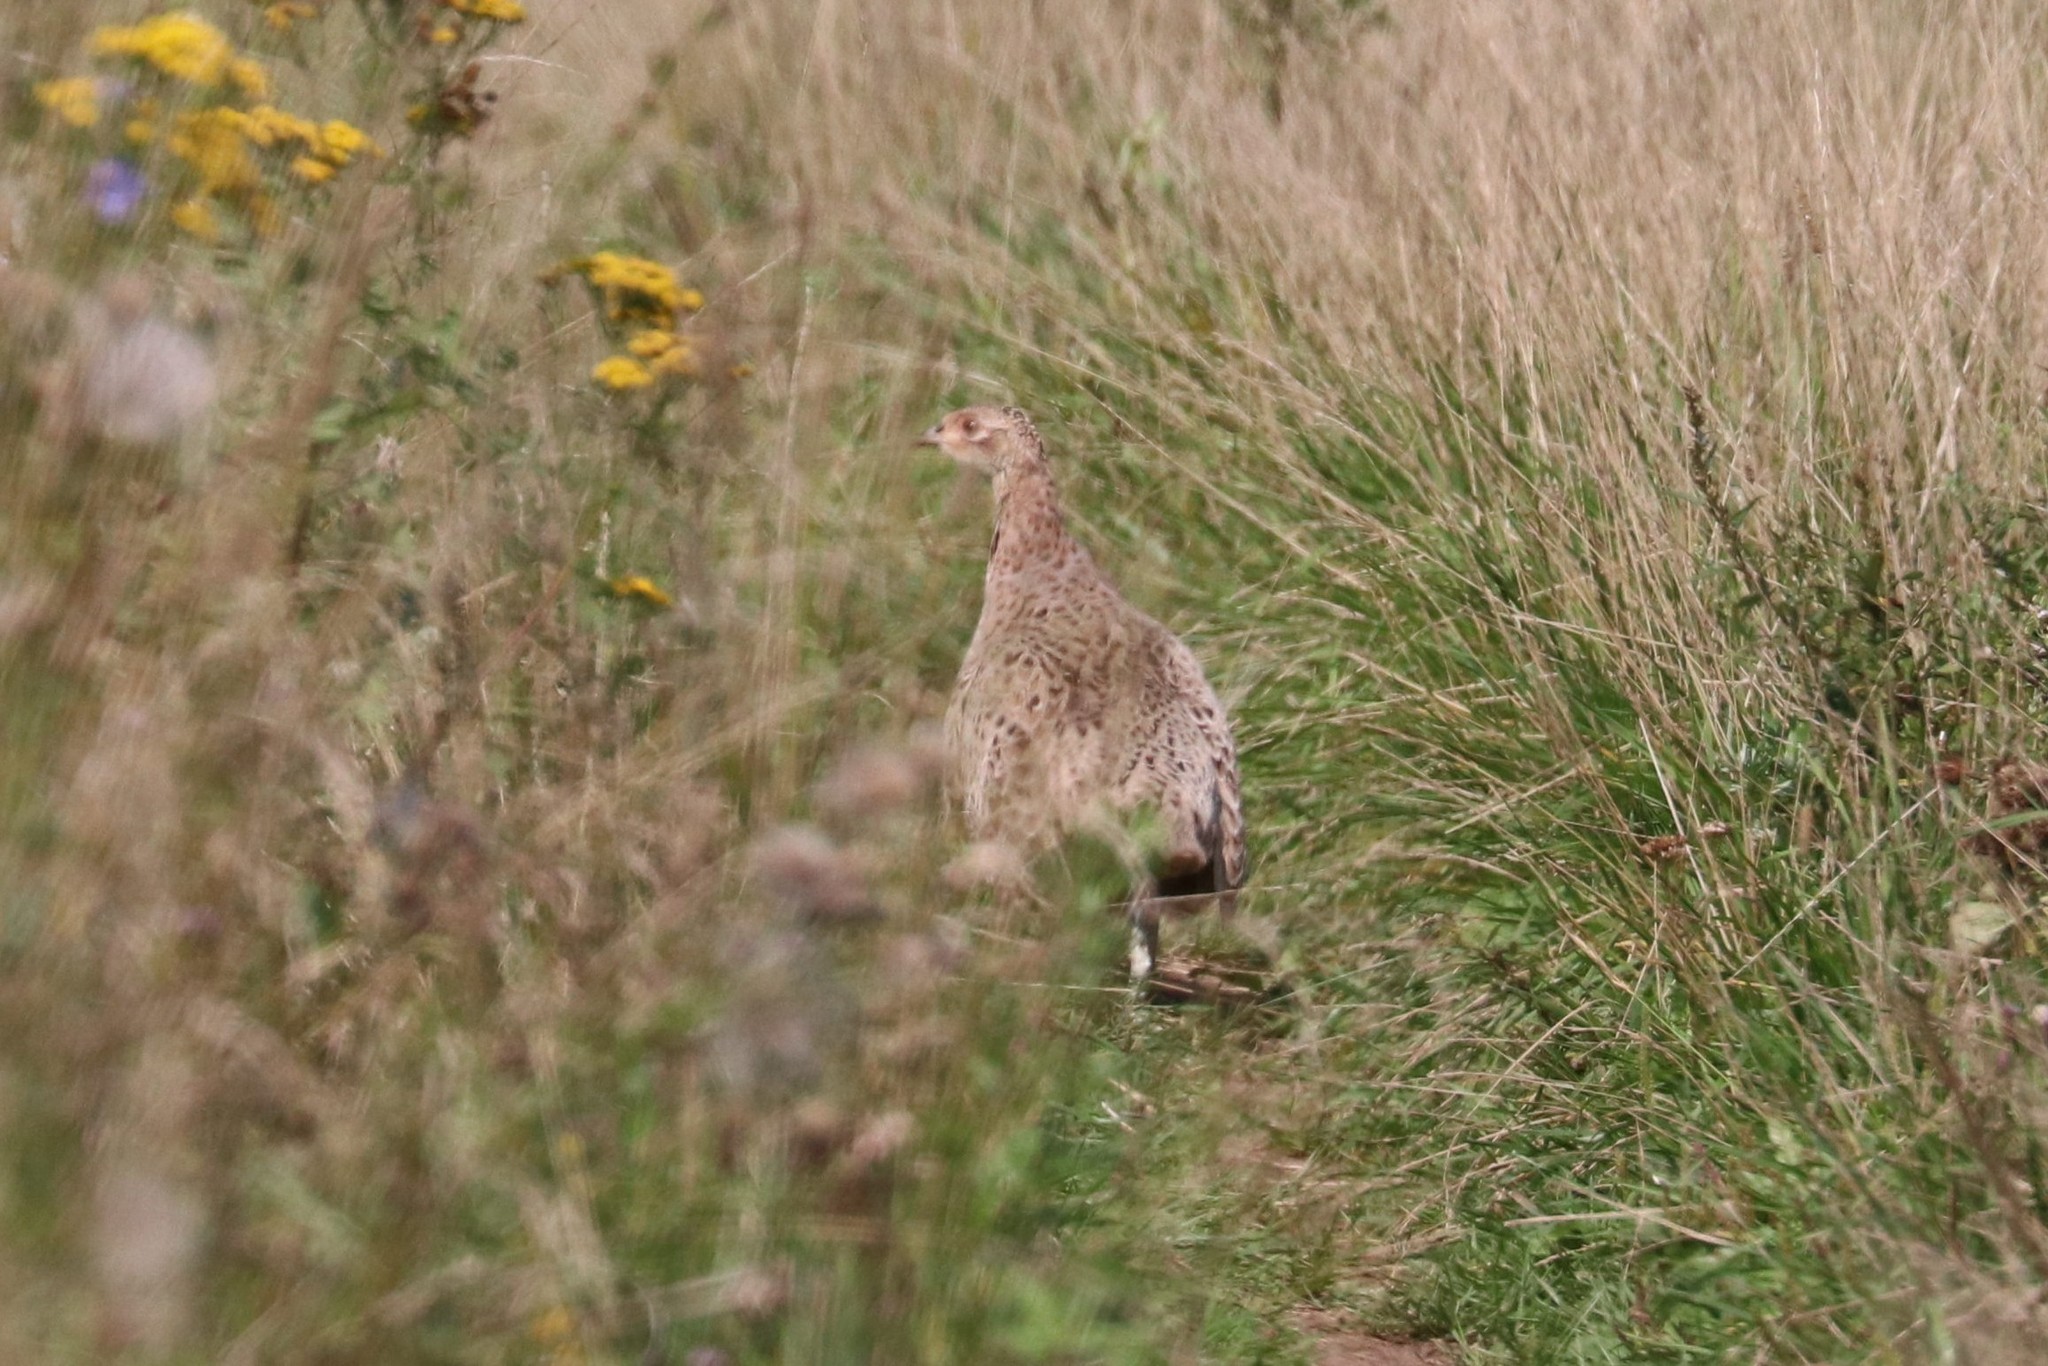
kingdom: Animalia
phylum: Chordata
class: Aves
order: Galliformes
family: Phasianidae
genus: Phasianus
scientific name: Phasianus colchicus
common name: Common pheasant
